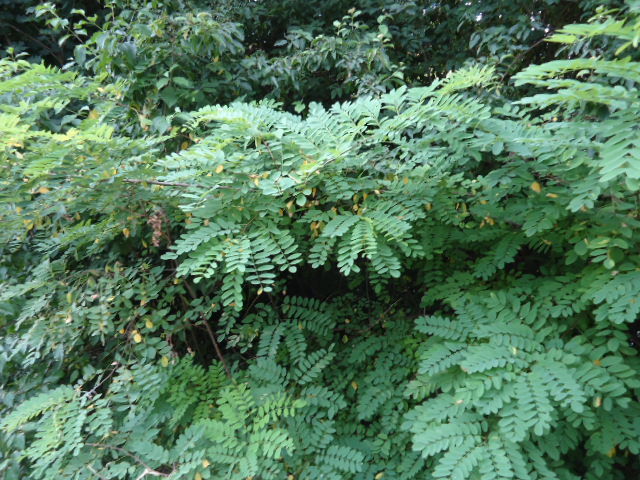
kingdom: Plantae
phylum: Tracheophyta
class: Magnoliopsida
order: Fabales
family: Fabaceae
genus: Robinia
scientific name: Robinia pseudoacacia
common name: Black locust
